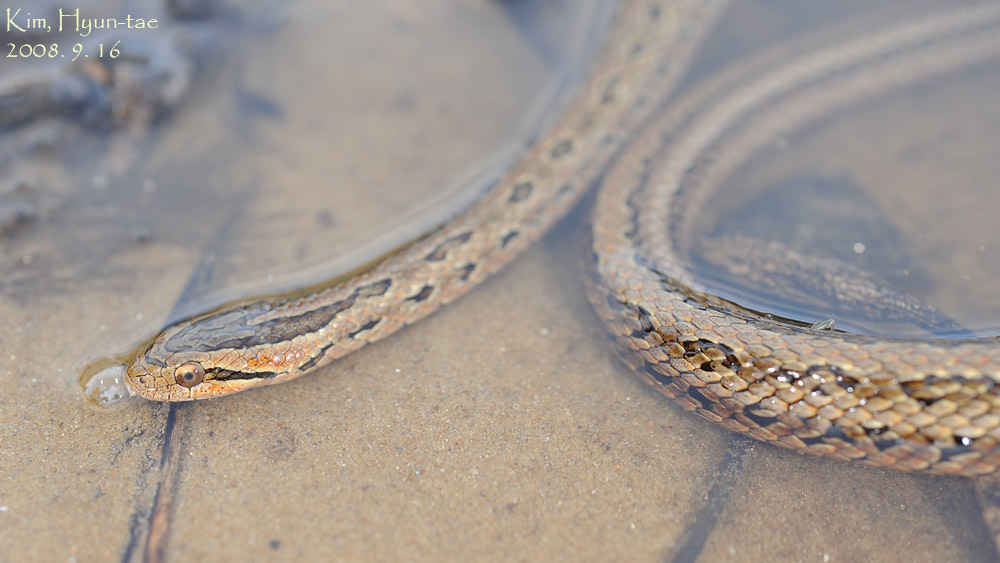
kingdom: Animalia
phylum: Chordata
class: Squamata
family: Colubridae
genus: Oocatochus
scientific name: Oocatochus rufodorsatus
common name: Frog-eating rat snake
